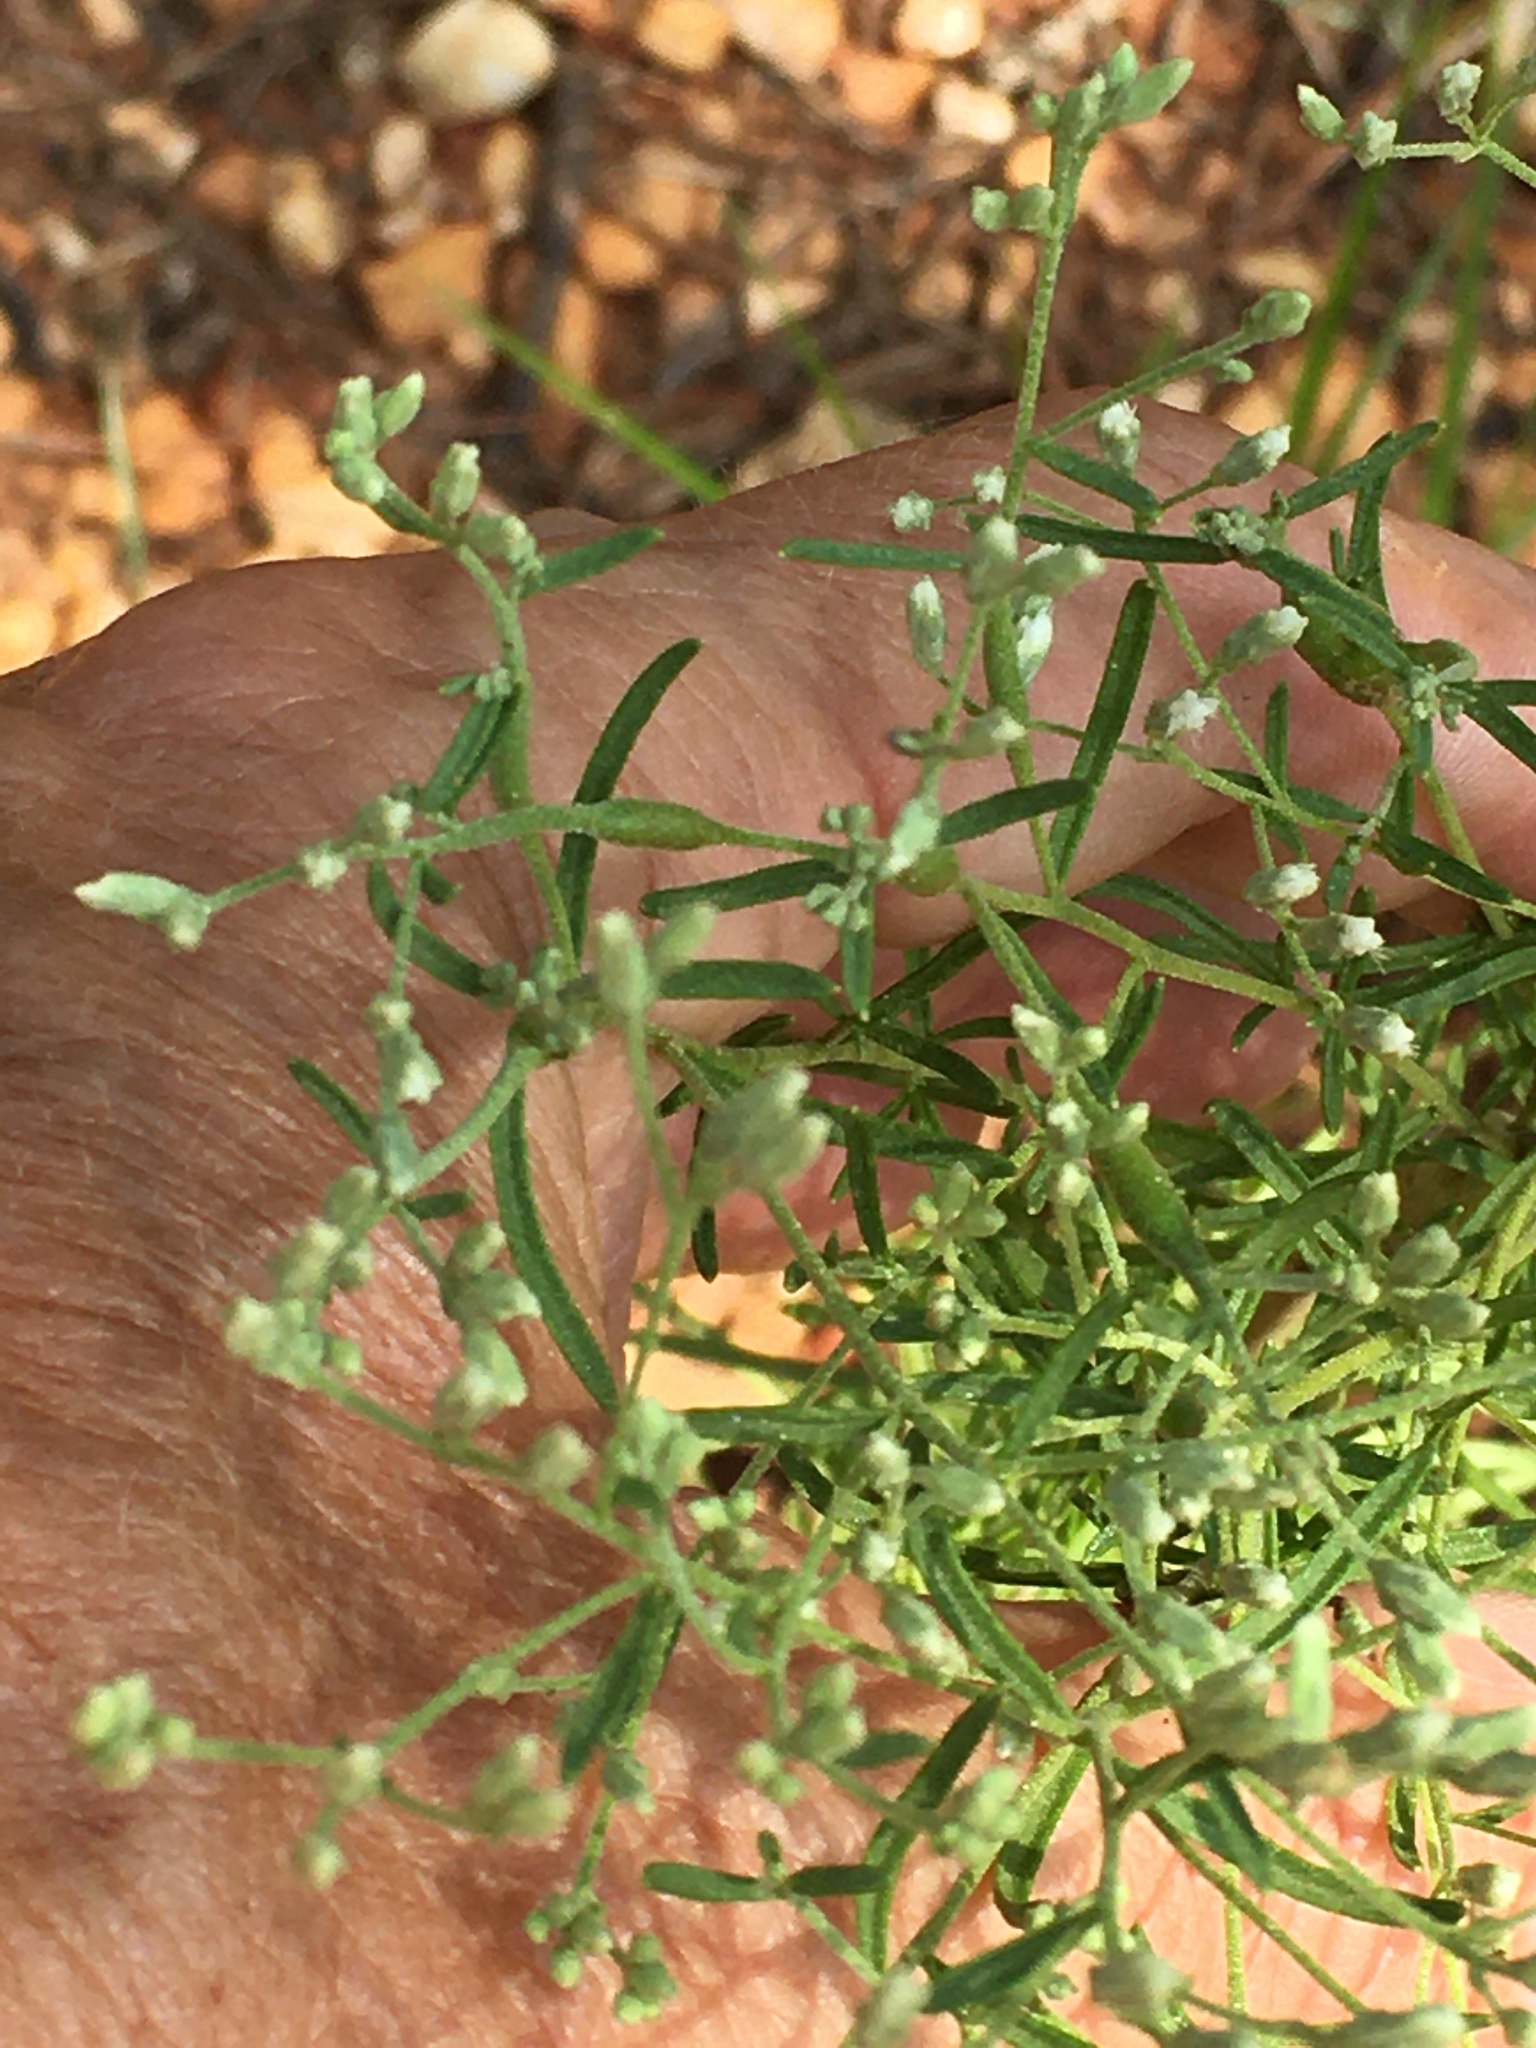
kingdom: Plantae
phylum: Tracheophyta
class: Magnoliopsida
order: Asterales
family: Asteraceae
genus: Eupatorium
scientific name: Eupatorium hyssopifolium
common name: Hyssop-leaf thoroughwort
